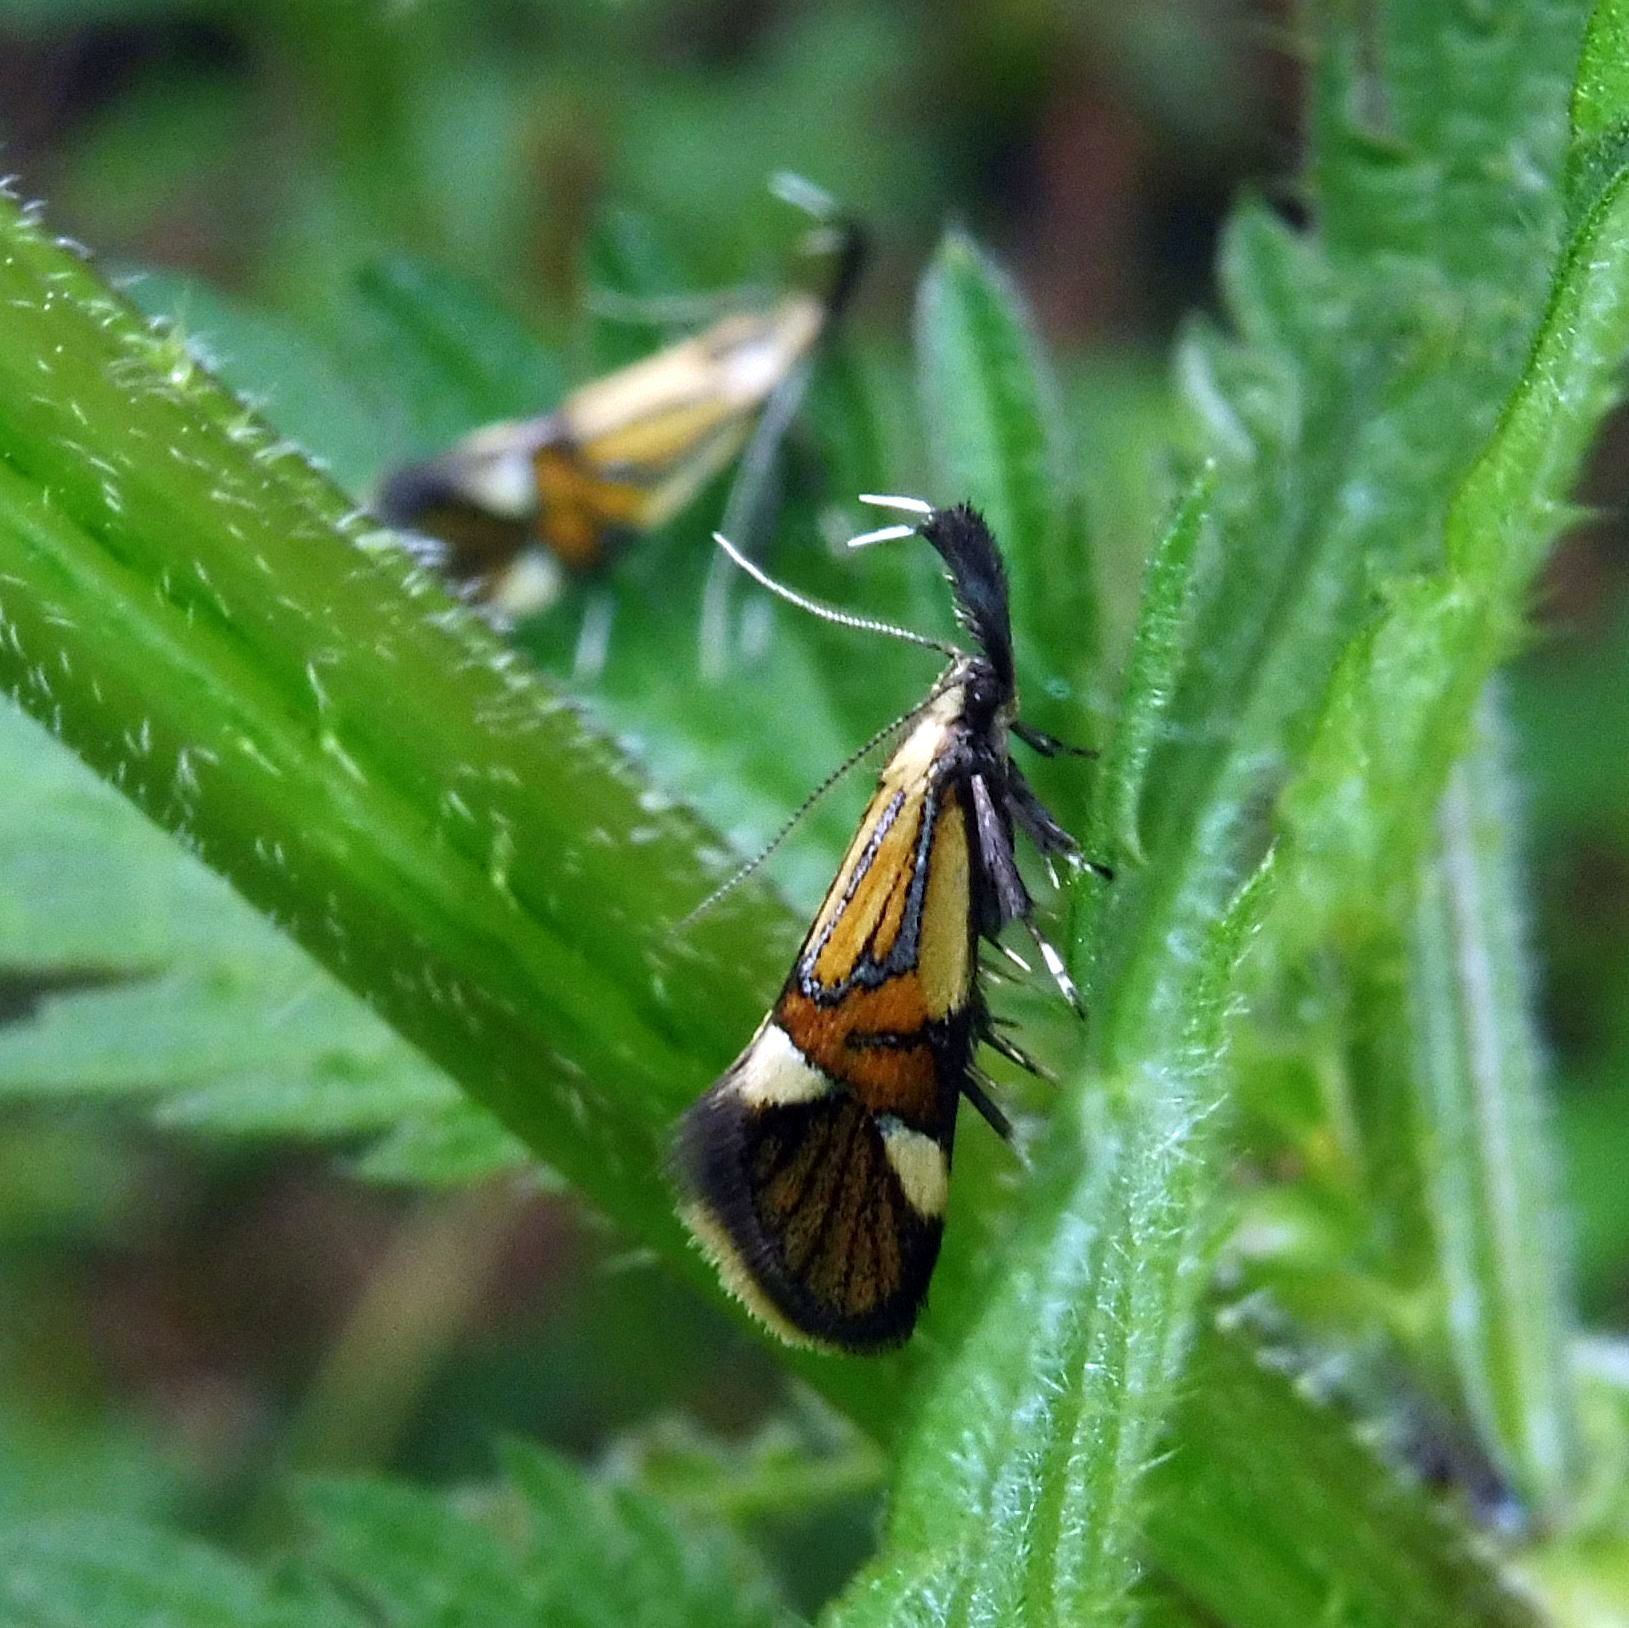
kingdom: Animalia
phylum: Arthropoda
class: Insecta
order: Lepidoptera
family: Oecophoridae
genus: Oecophora
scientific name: Oecophora Alabonia geoffrella
